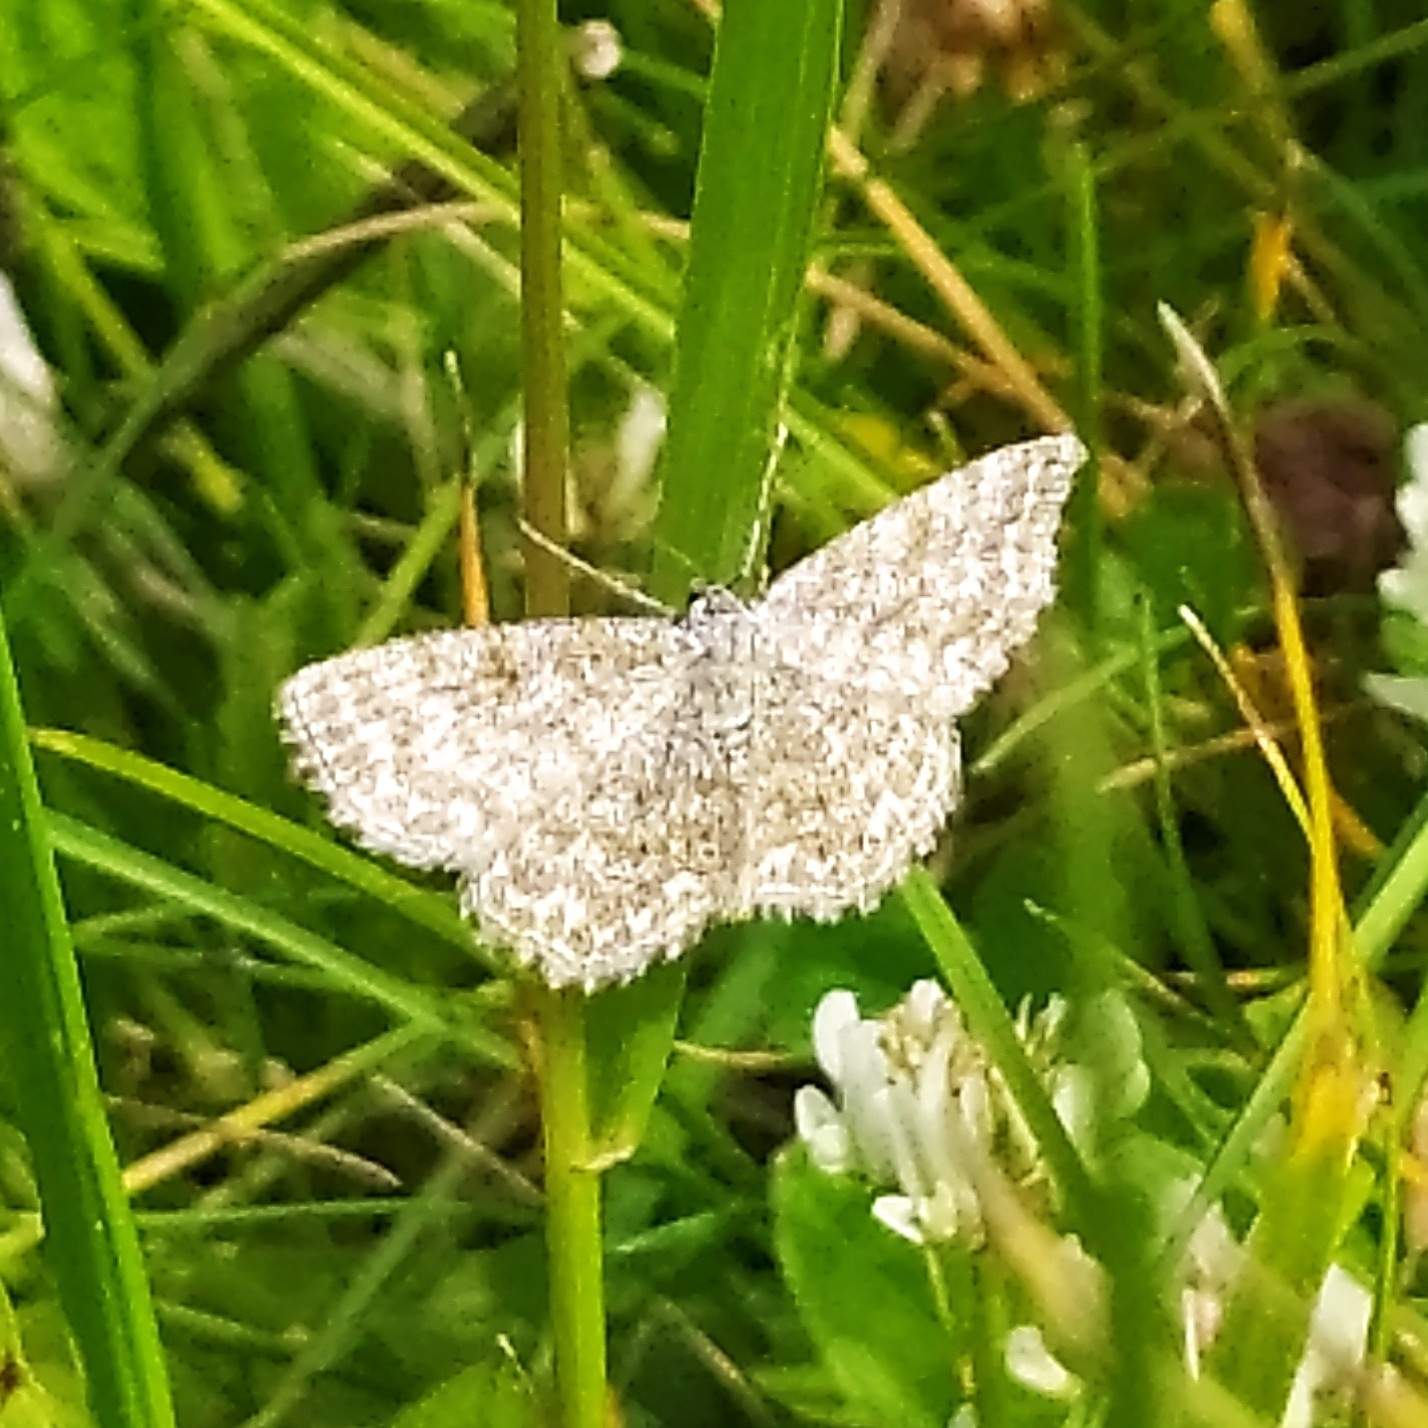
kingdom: Animalia
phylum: Arthropoda
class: Insecta
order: Lepidoptera
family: Geometridae
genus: Scopula
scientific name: Scopula immorata
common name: Lewes wave
